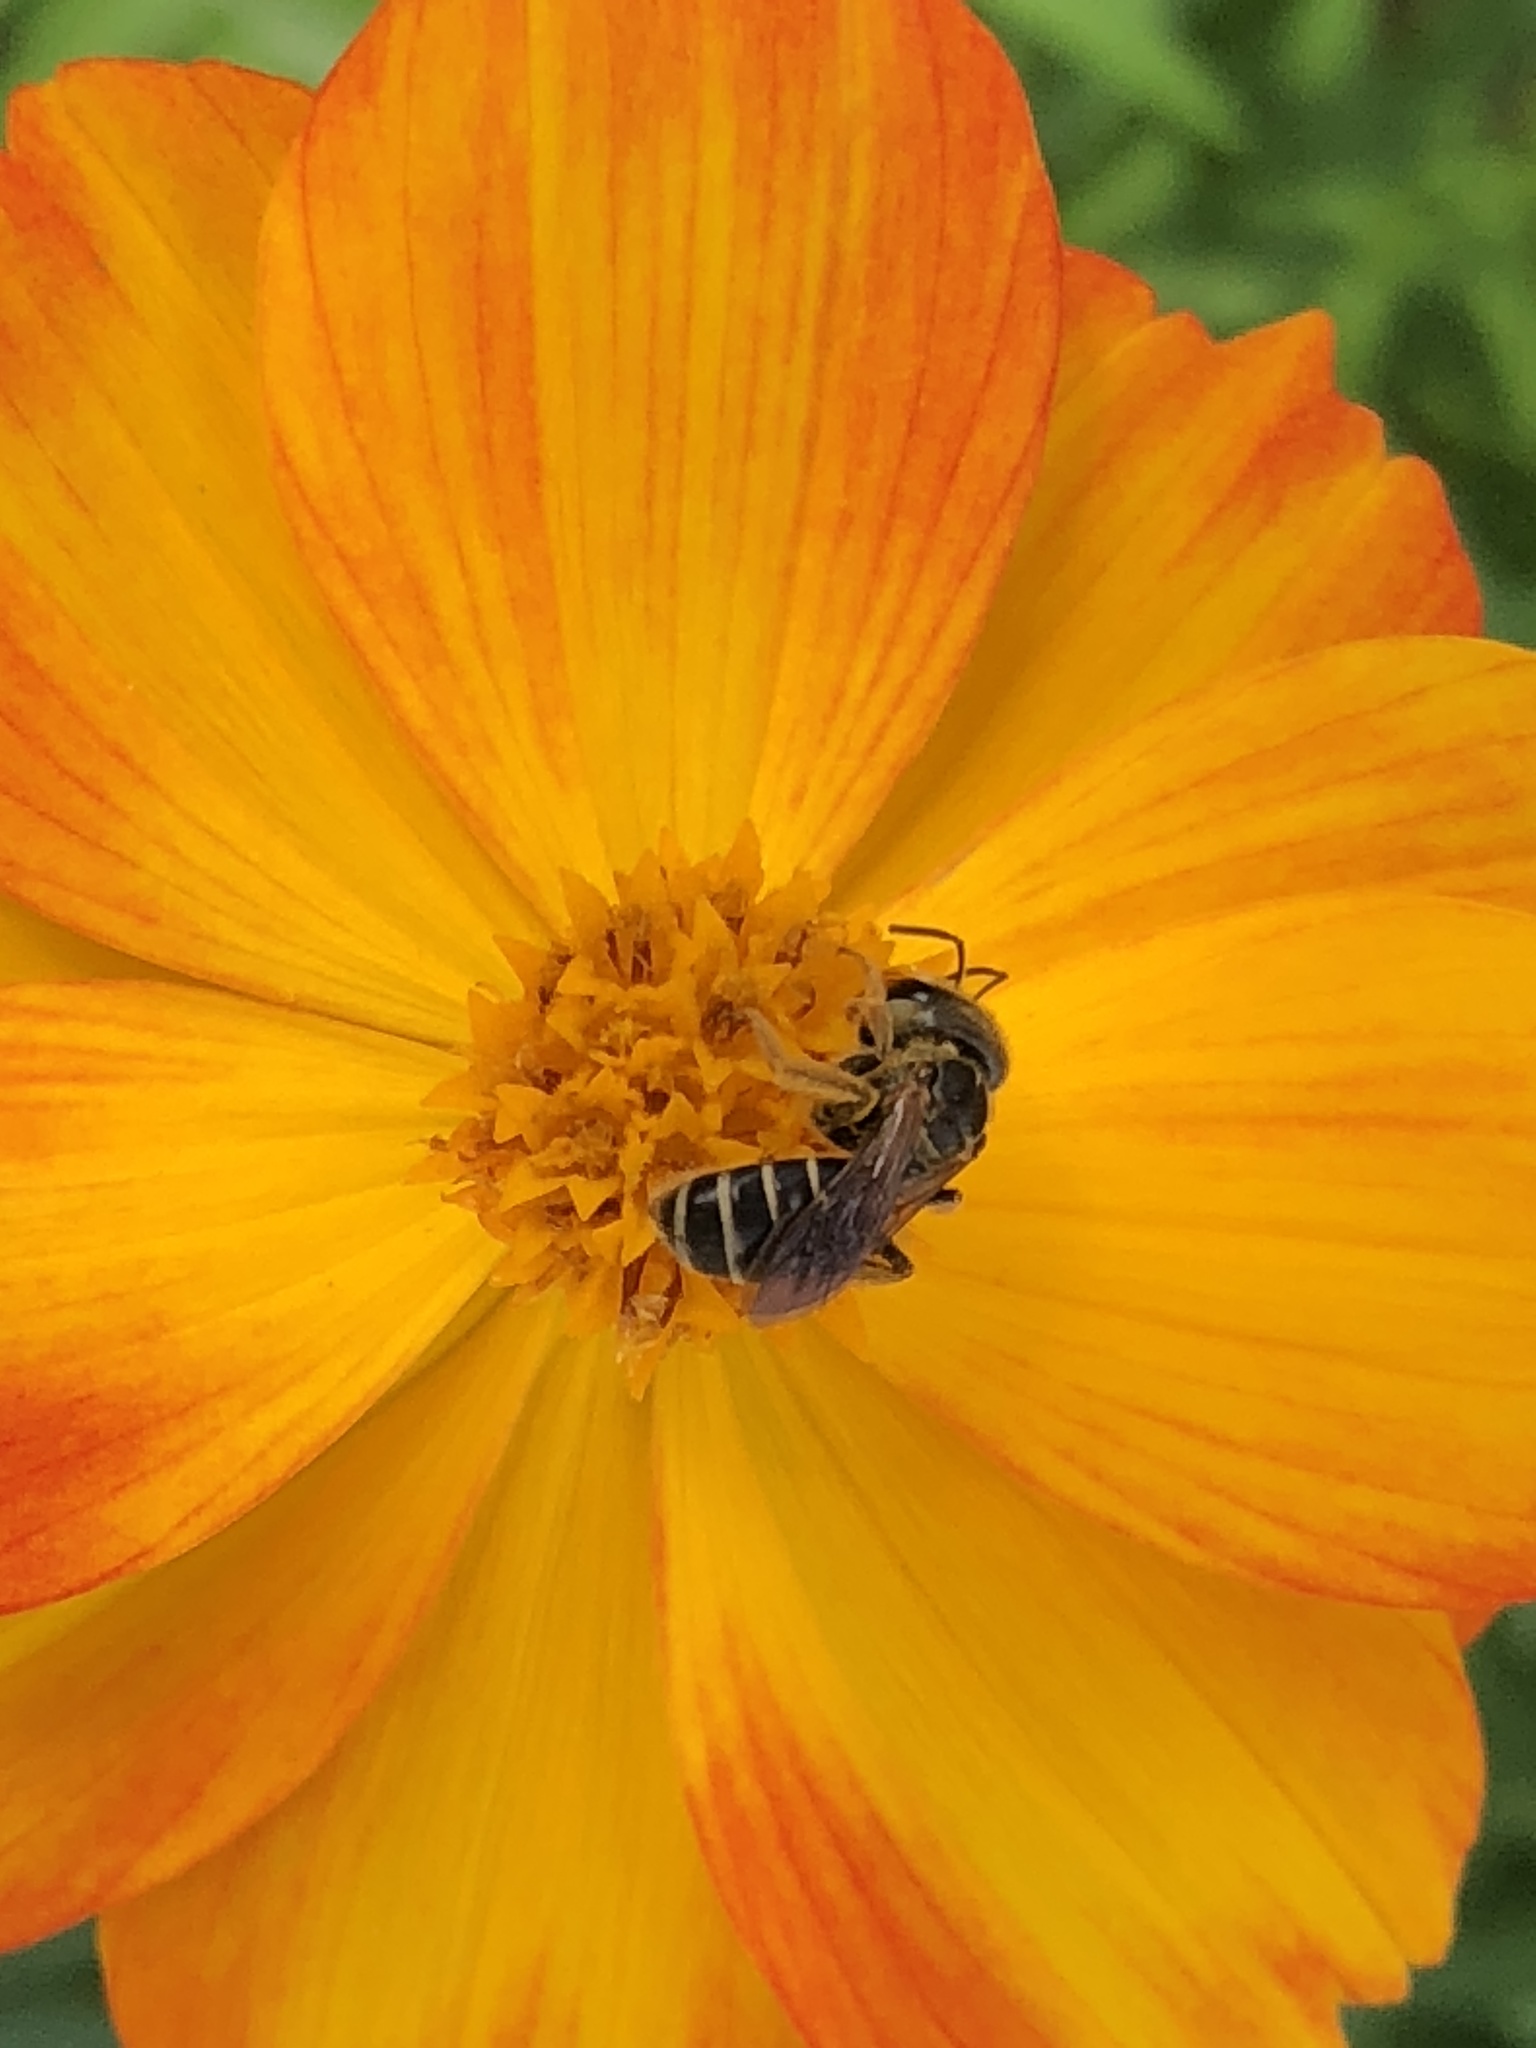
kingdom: Animalia
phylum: Arthropoda
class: Insecta
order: Hymenoptera
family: Halictidae
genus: Halictus
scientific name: Halictus poeyi
